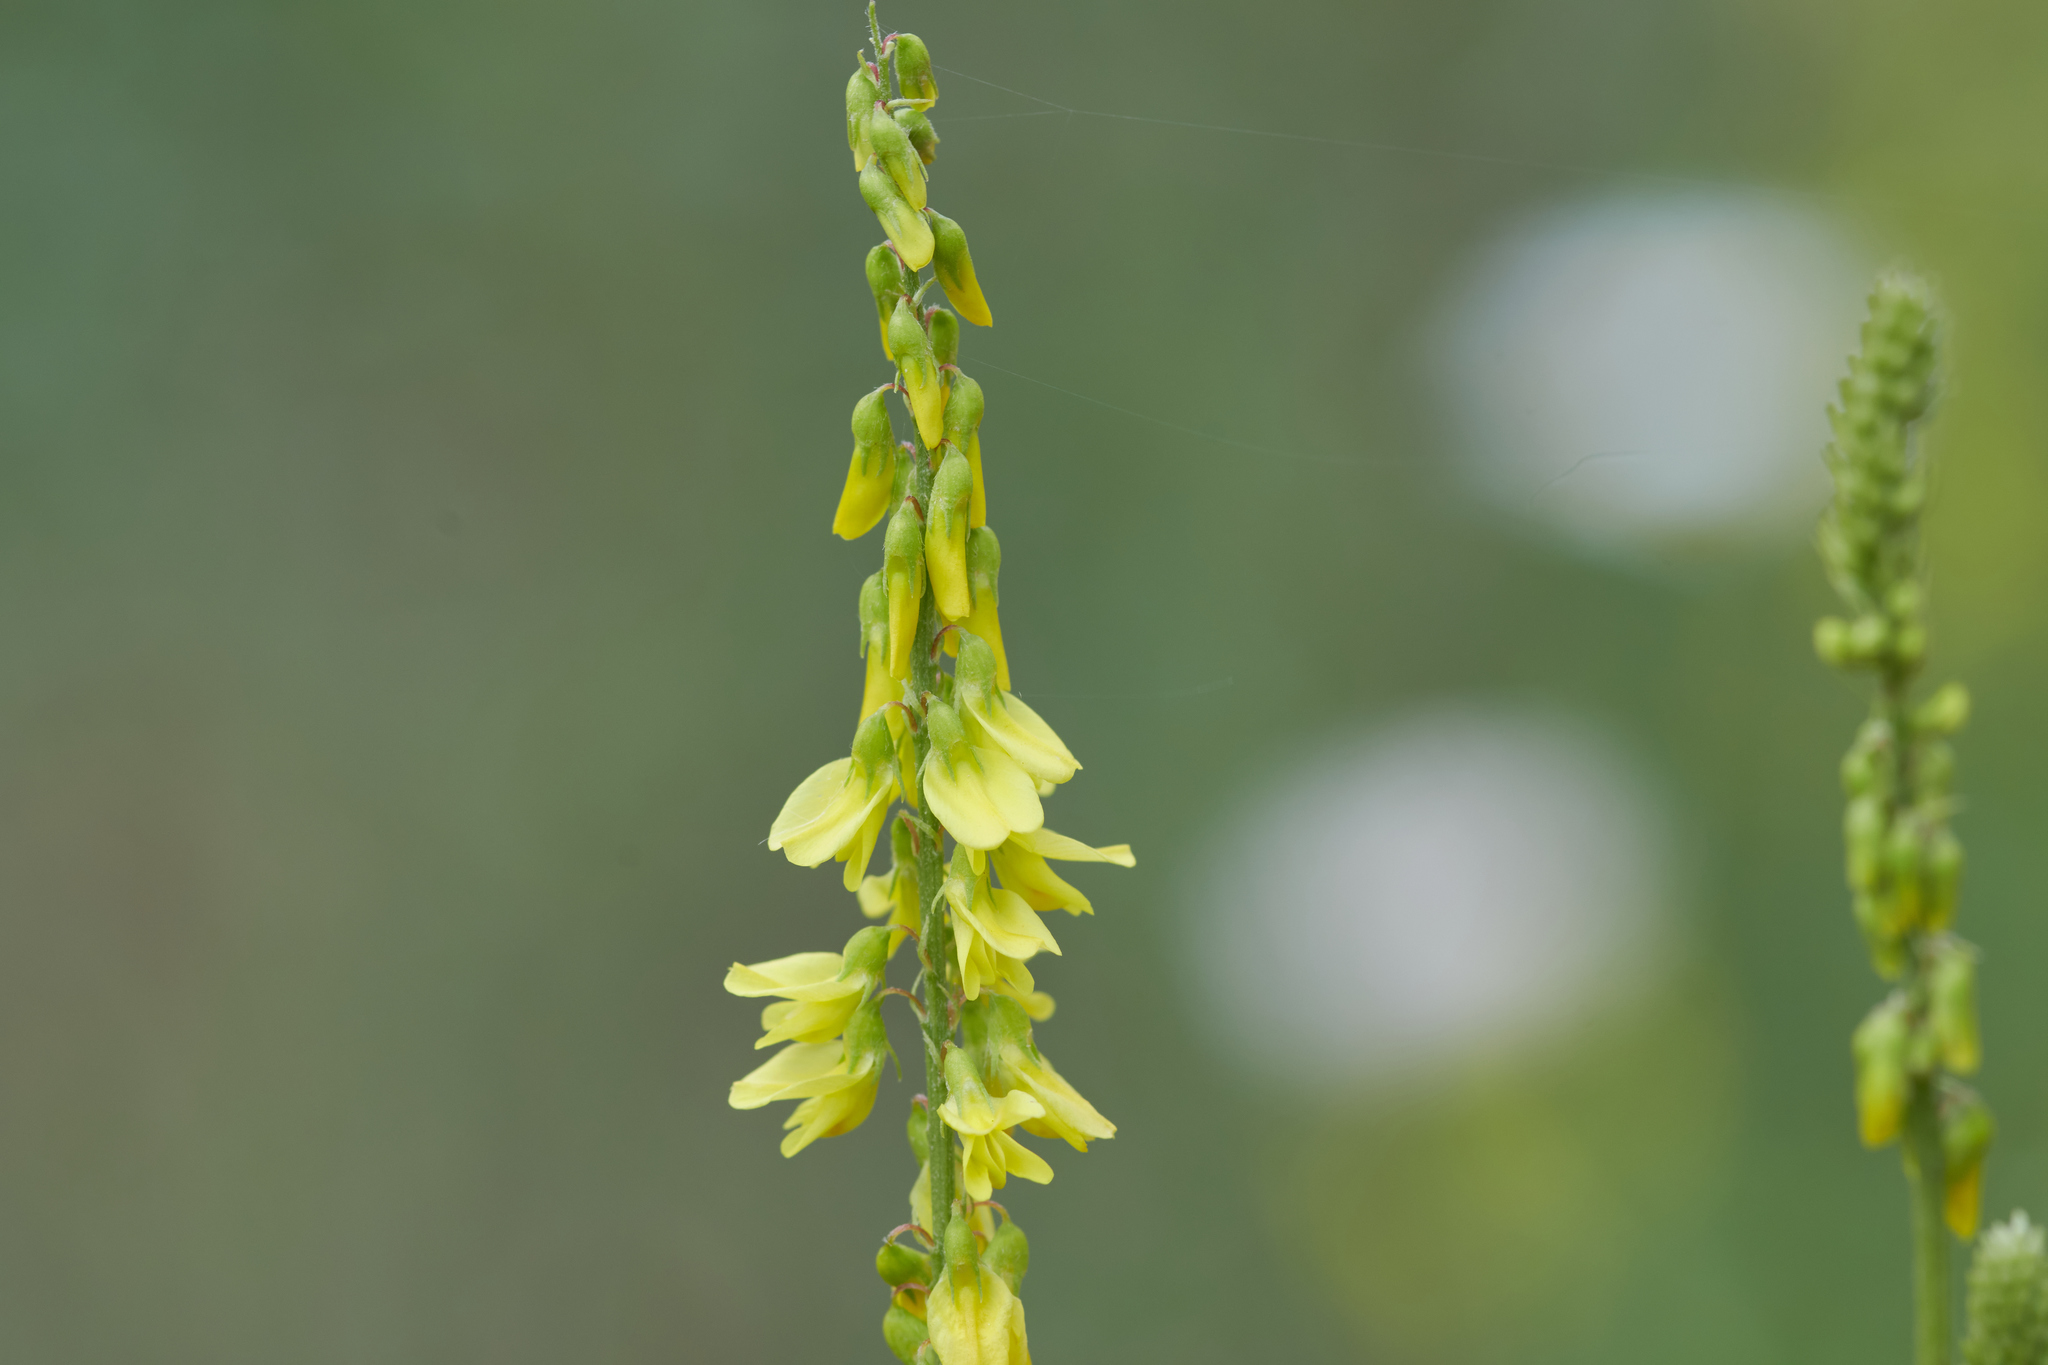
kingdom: Plantae
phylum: Tracheophyta
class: Magnoliopsida
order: Fabales
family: Fabaceae
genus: Melilotus
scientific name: Melilotus officinalis
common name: Sweetclover
